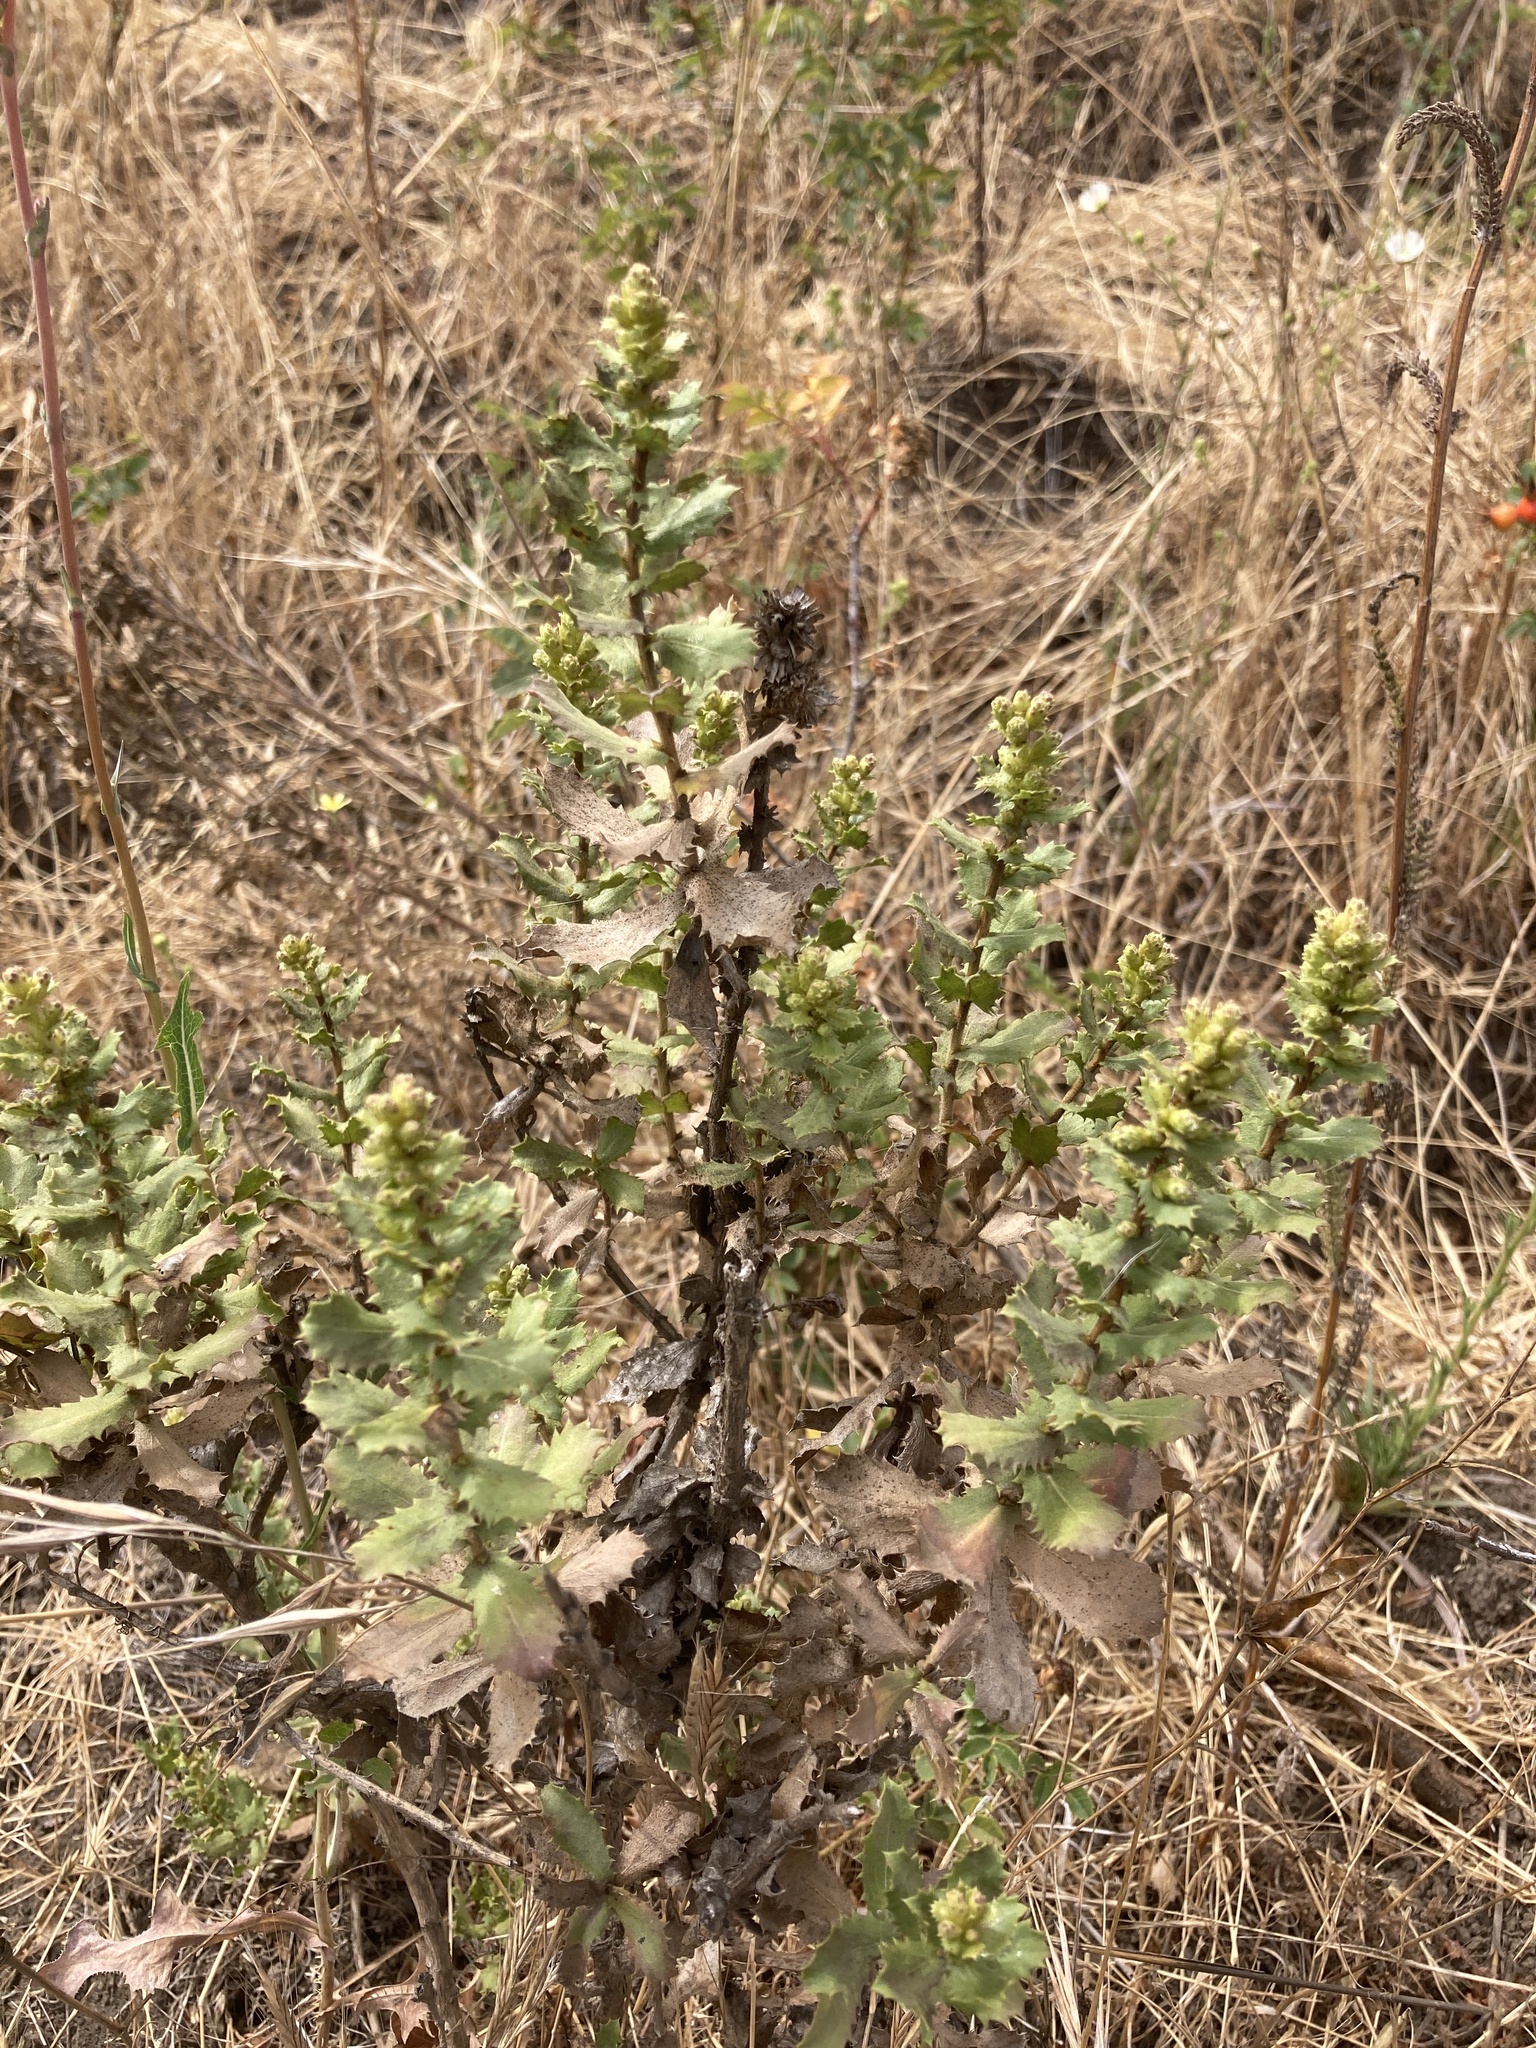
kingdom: Plantae
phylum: Tracheophyta
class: Magnoliopsida
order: Asterales
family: Asteraceae
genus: Hazardia
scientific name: Hazardia squarrosa
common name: Saw-tooth goldenbush
